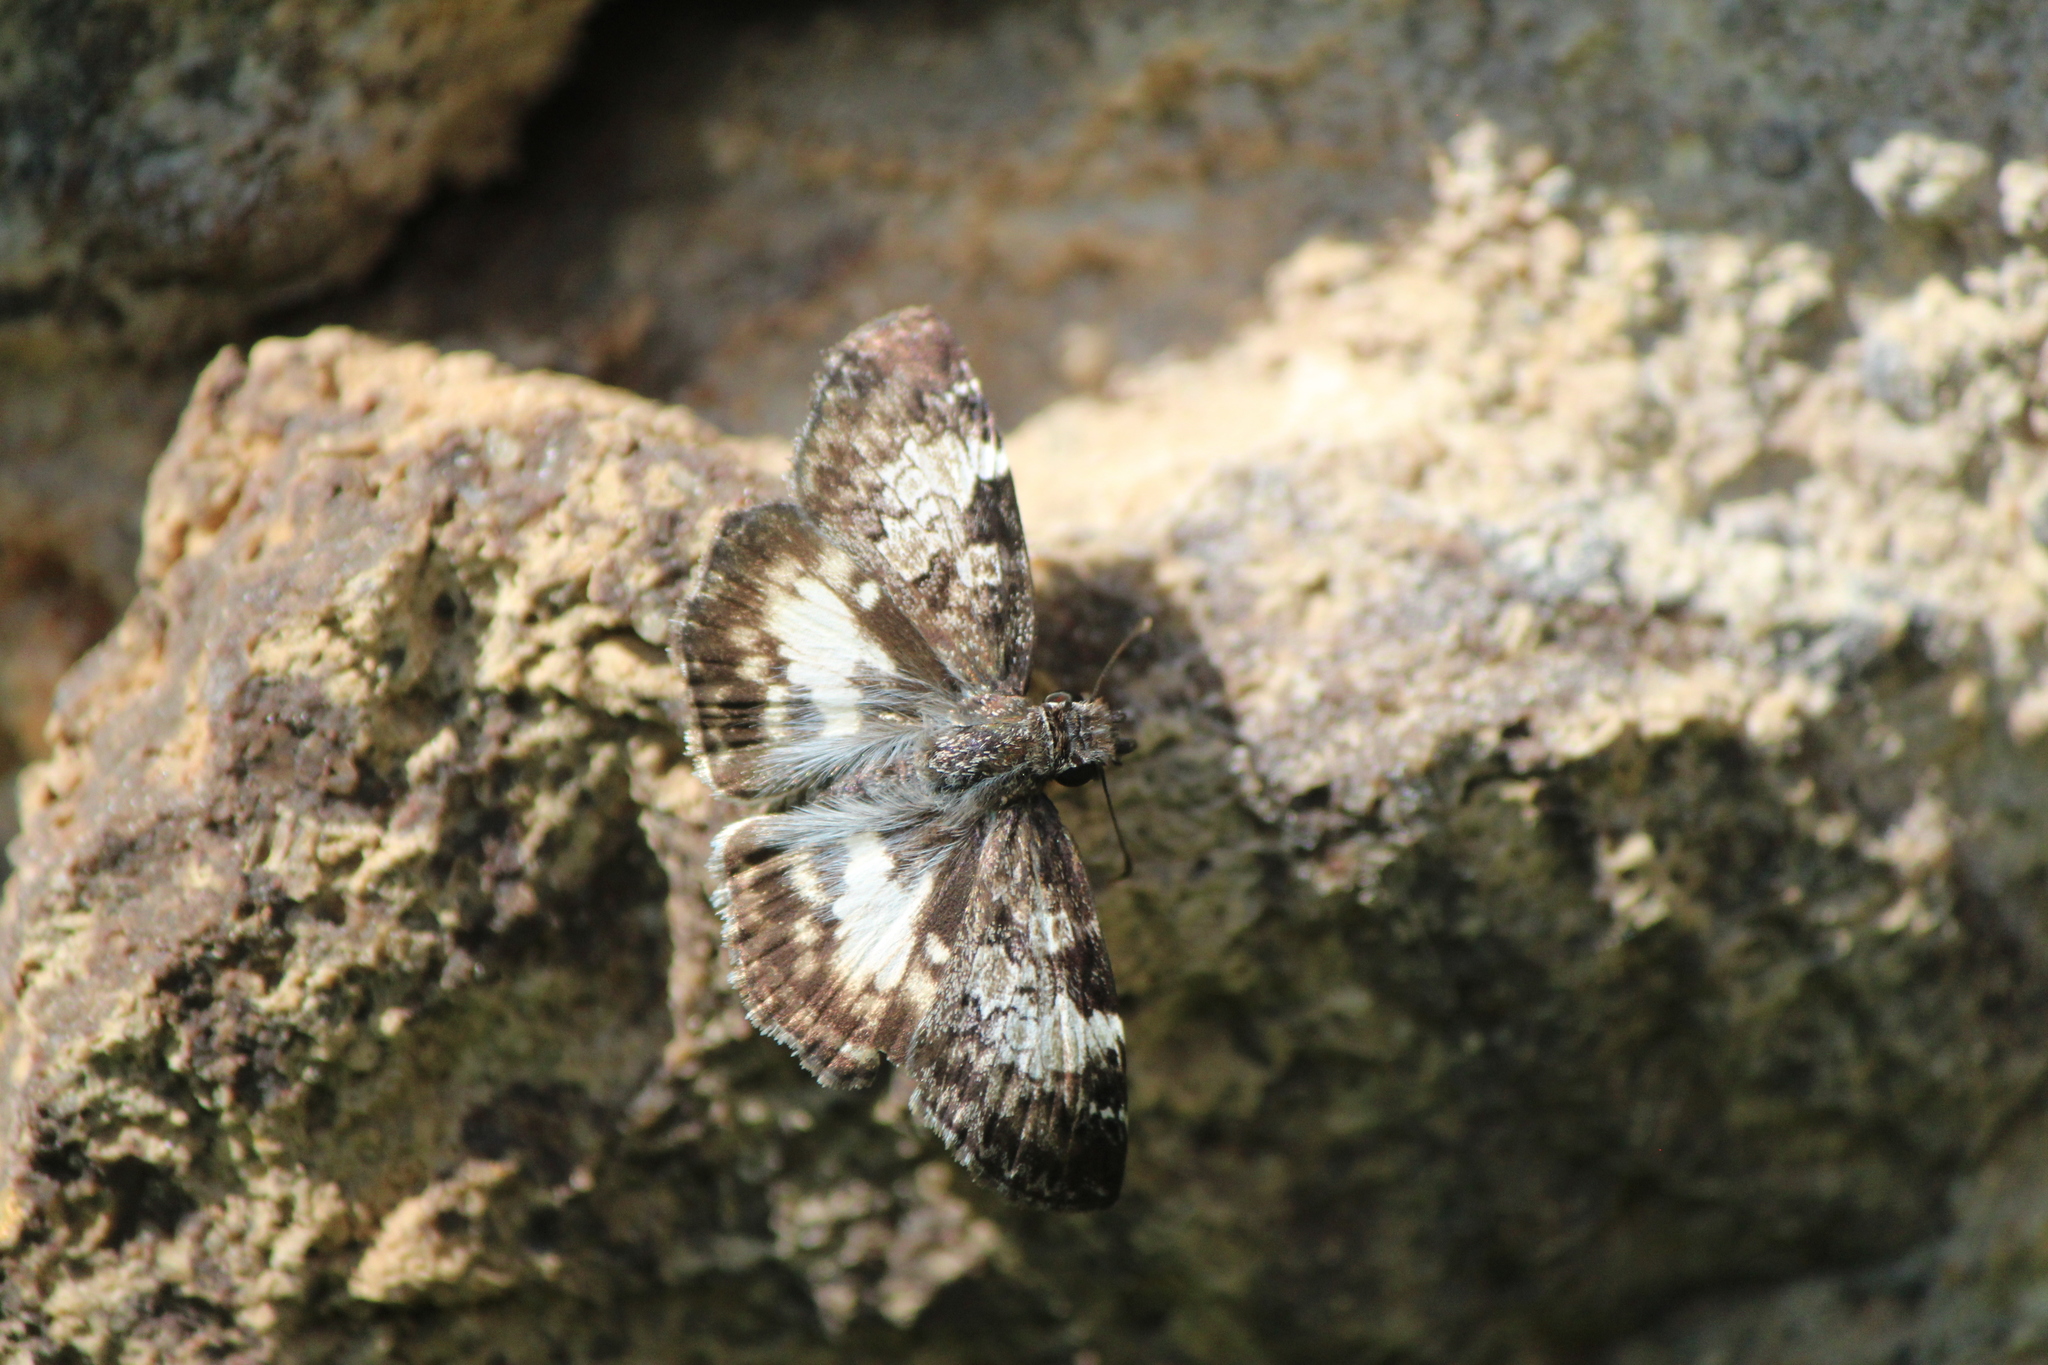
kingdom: Animalia
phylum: Arthropoda
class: Insecta
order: Lepidoptera
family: Hesperiidae
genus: Chiothion
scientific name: Chiothion georgina
